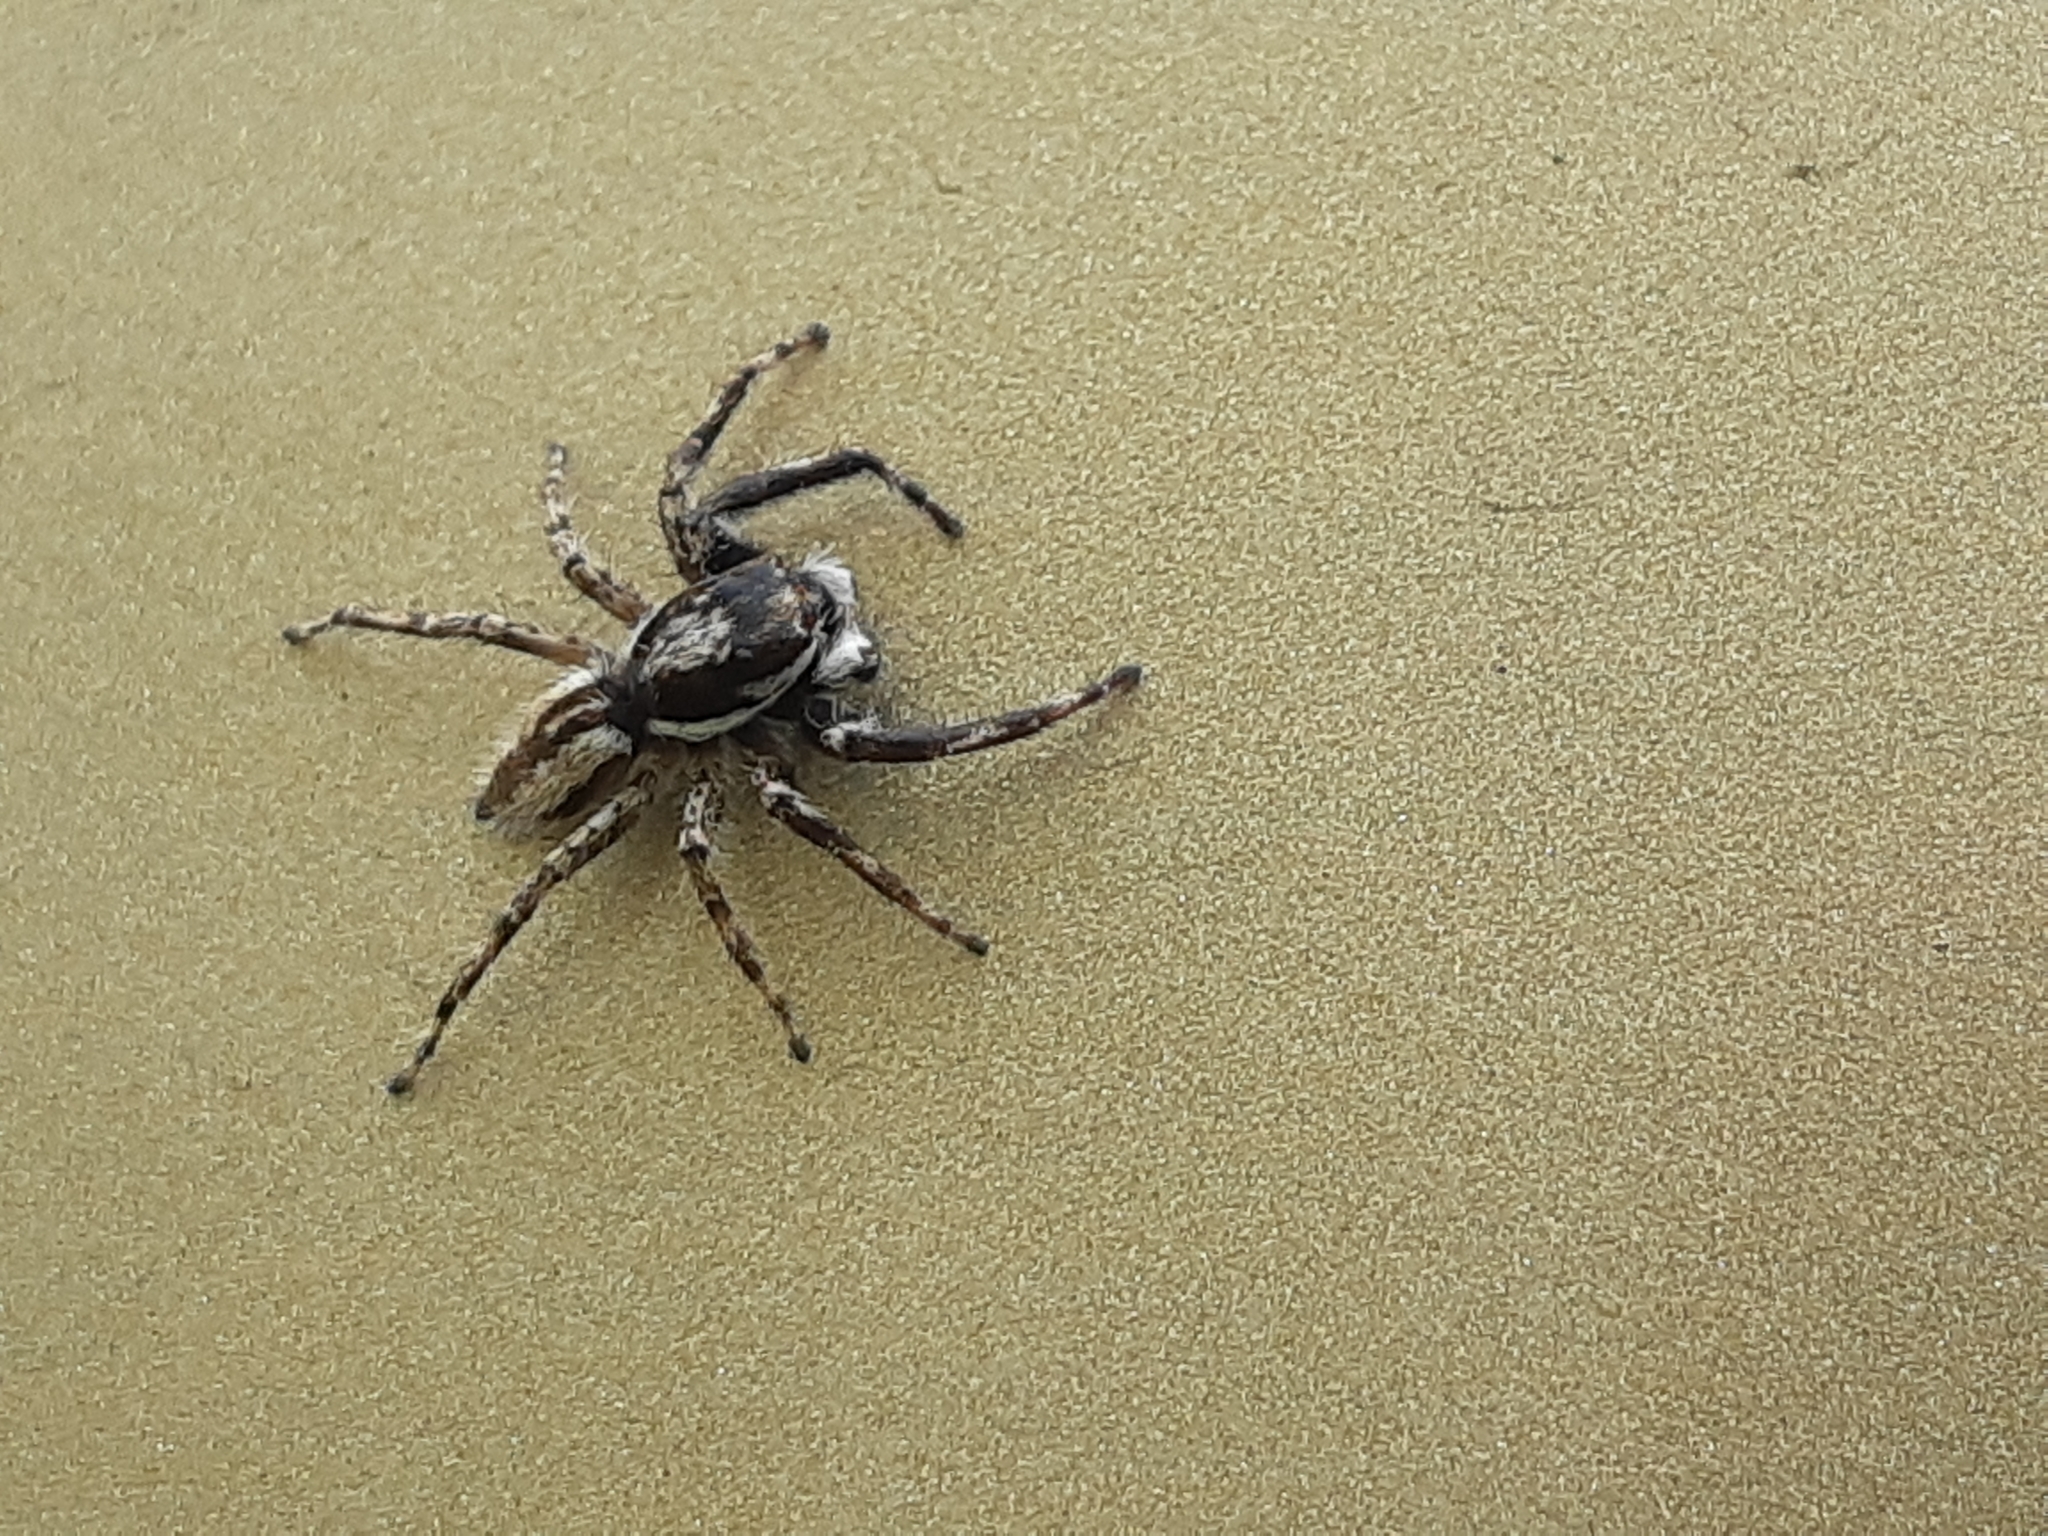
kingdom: Animalia
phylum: Arthropoda
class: Arachnida
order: Araneae
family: Salticidae
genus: Menemerus
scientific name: Menemerus bivittatus
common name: Gray wall jumper
